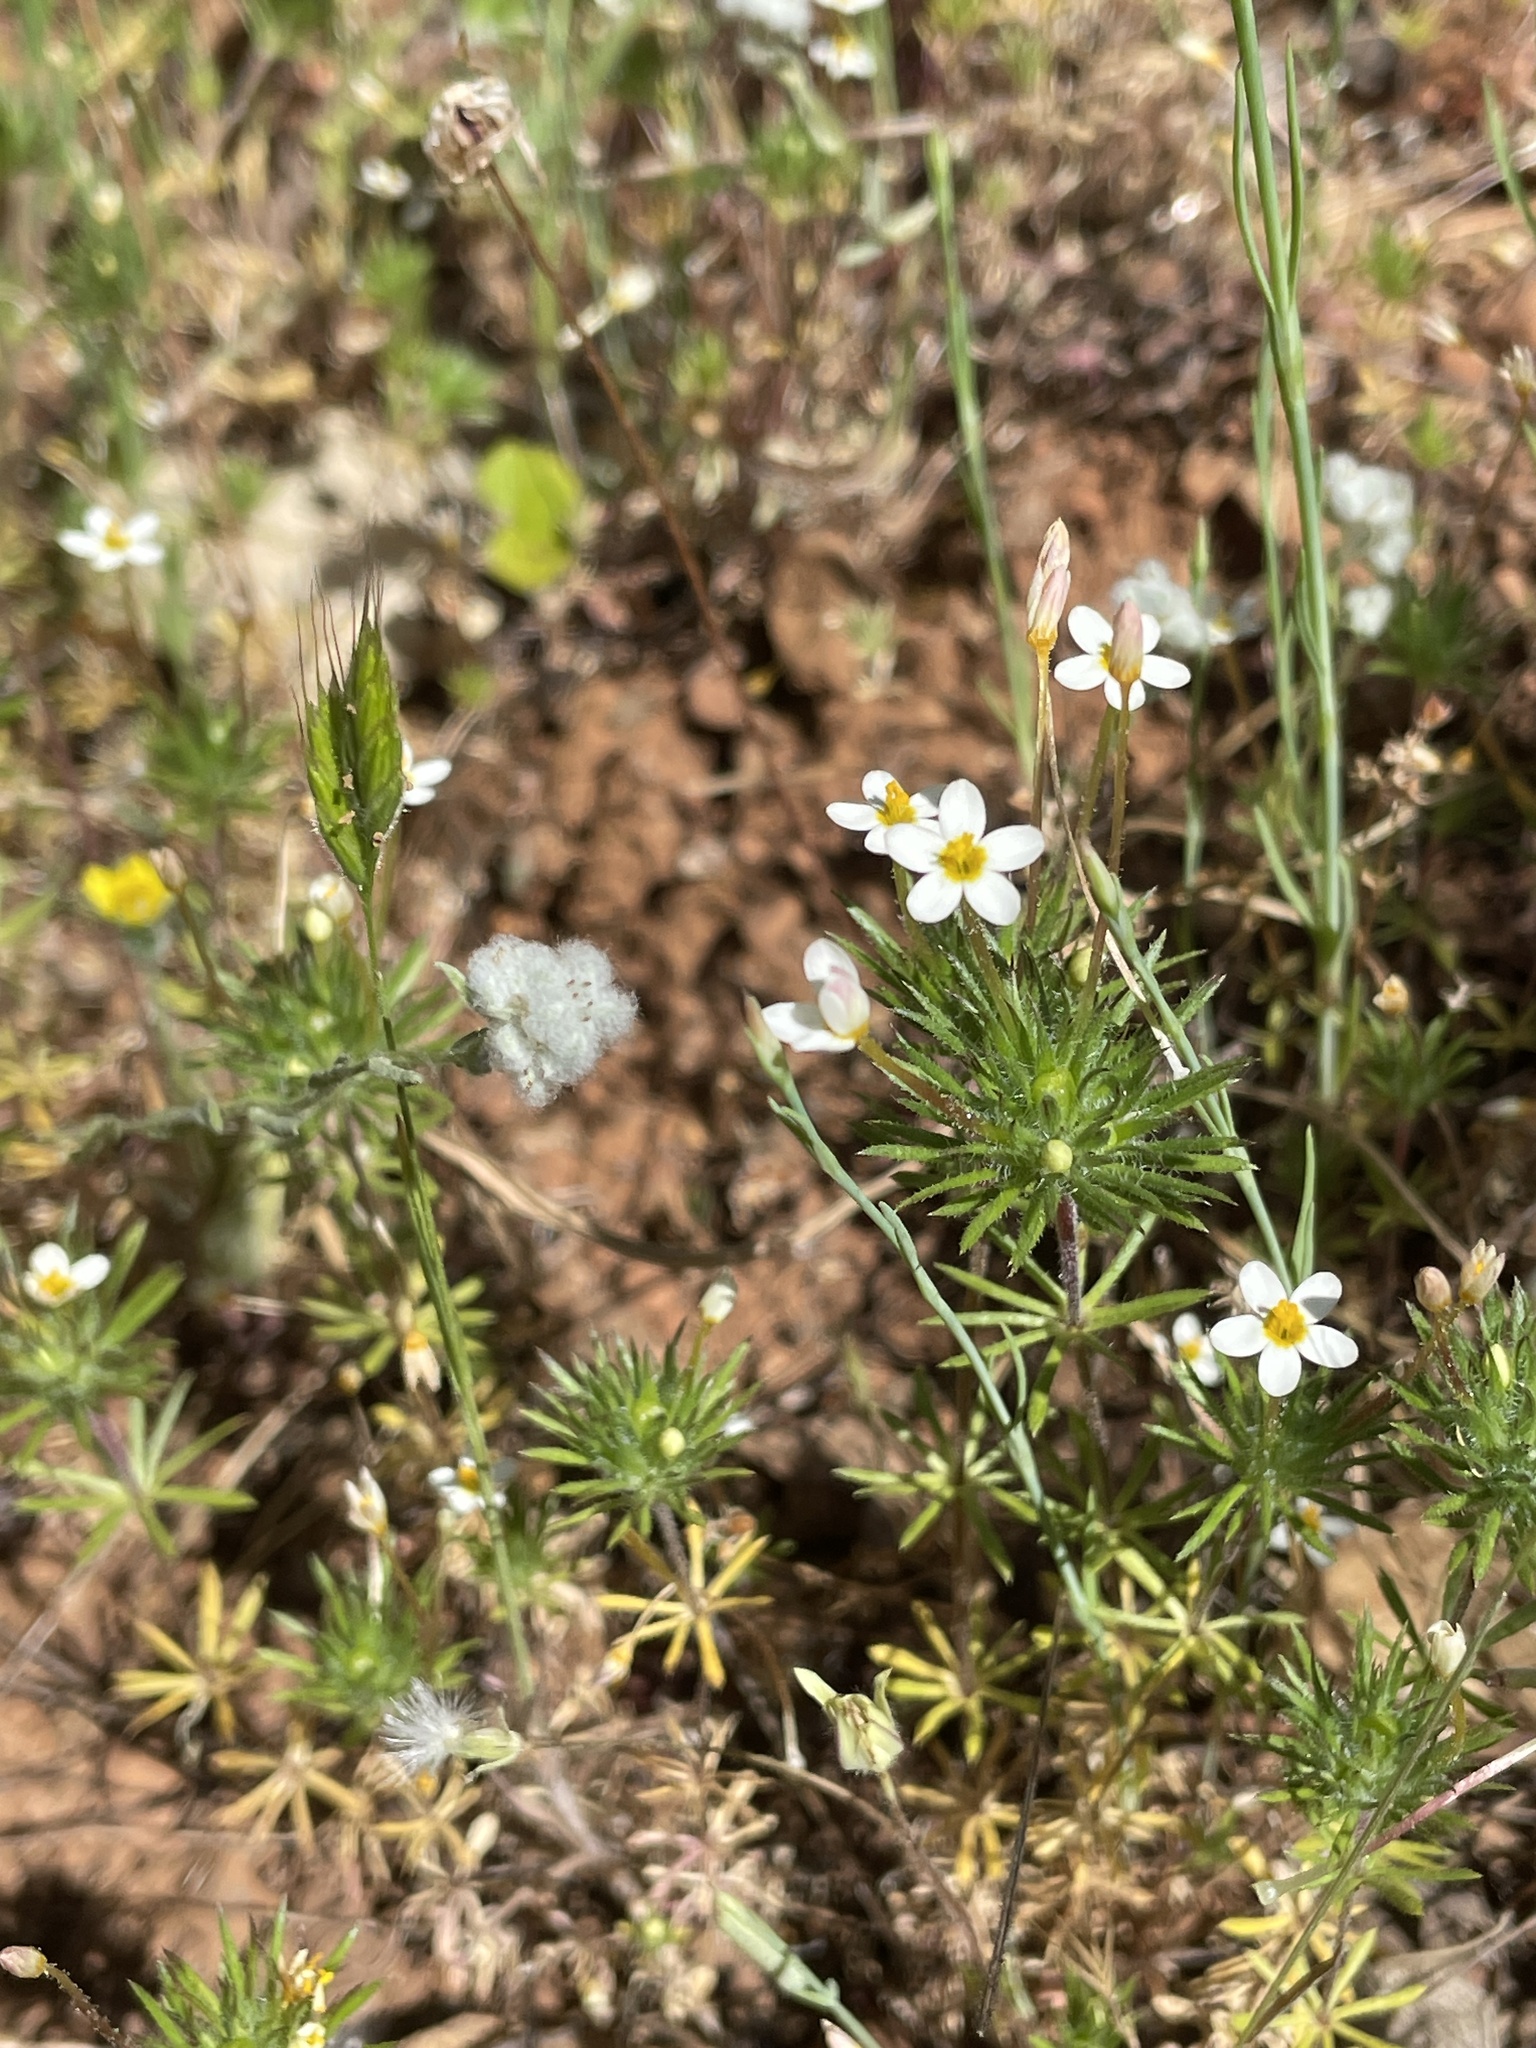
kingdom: Plantae
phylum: Tracheophyta
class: Magnoliopsida
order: Ericales
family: Polemoniaceae
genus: Leptosiphon
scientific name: Leptosiphon bicolor
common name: True babystars
